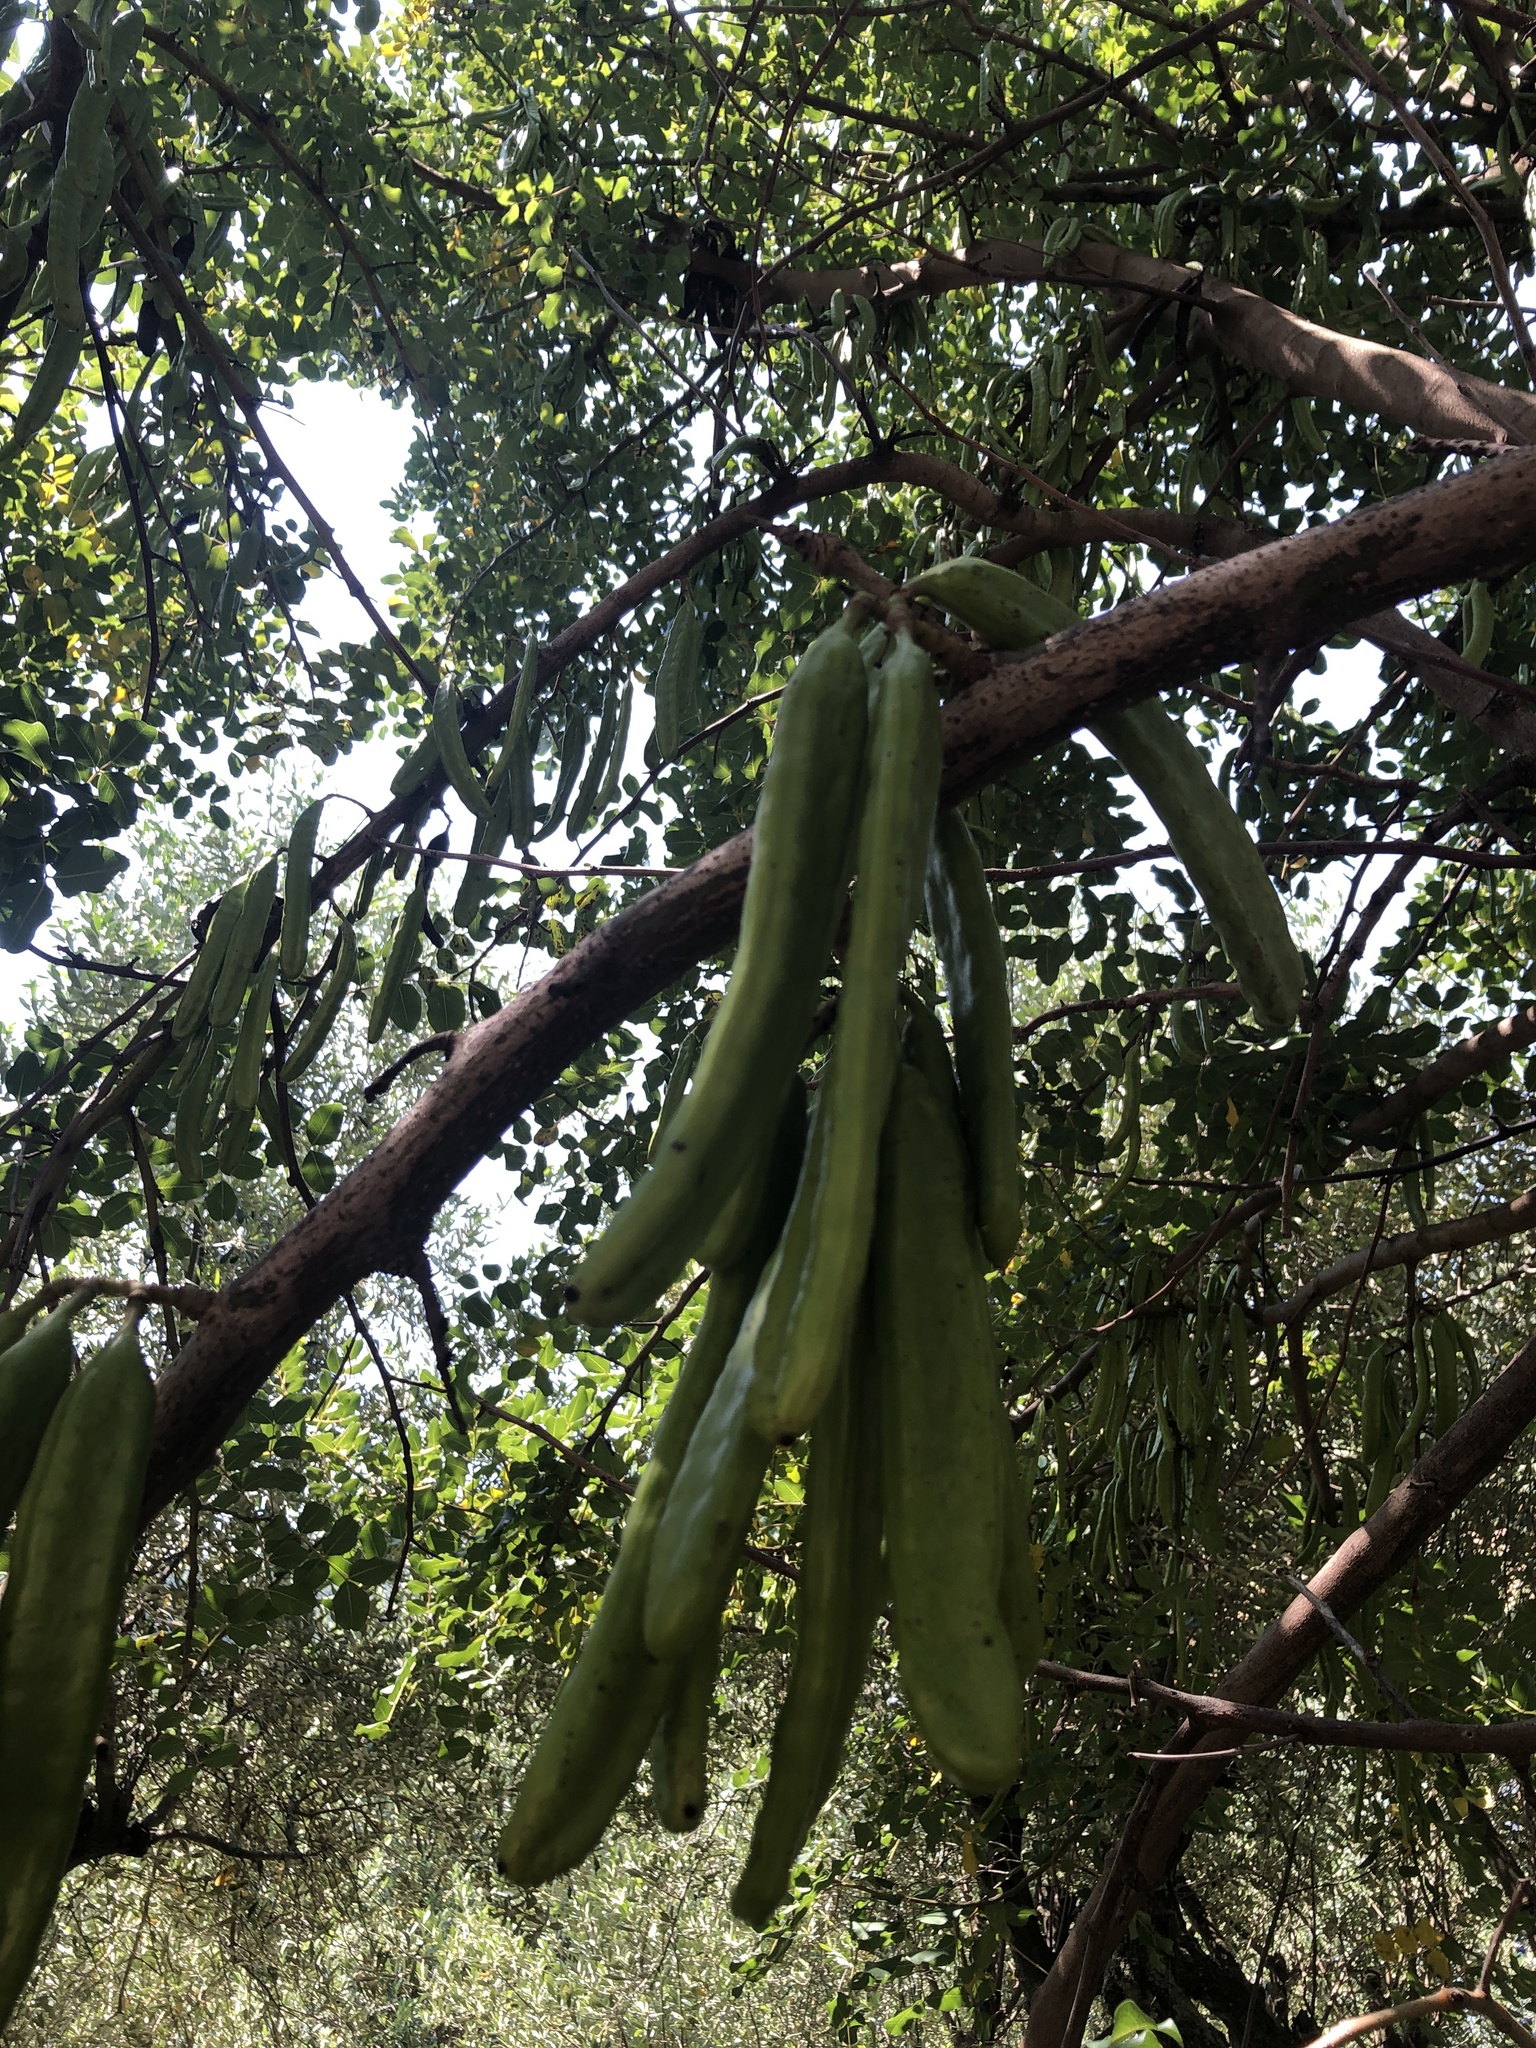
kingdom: Plantae
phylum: Tracheophyta
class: Magnoliopsida
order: Fabales
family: Fabaceae
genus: Ceratonia
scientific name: Ceratonia siliqua
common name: Carob
